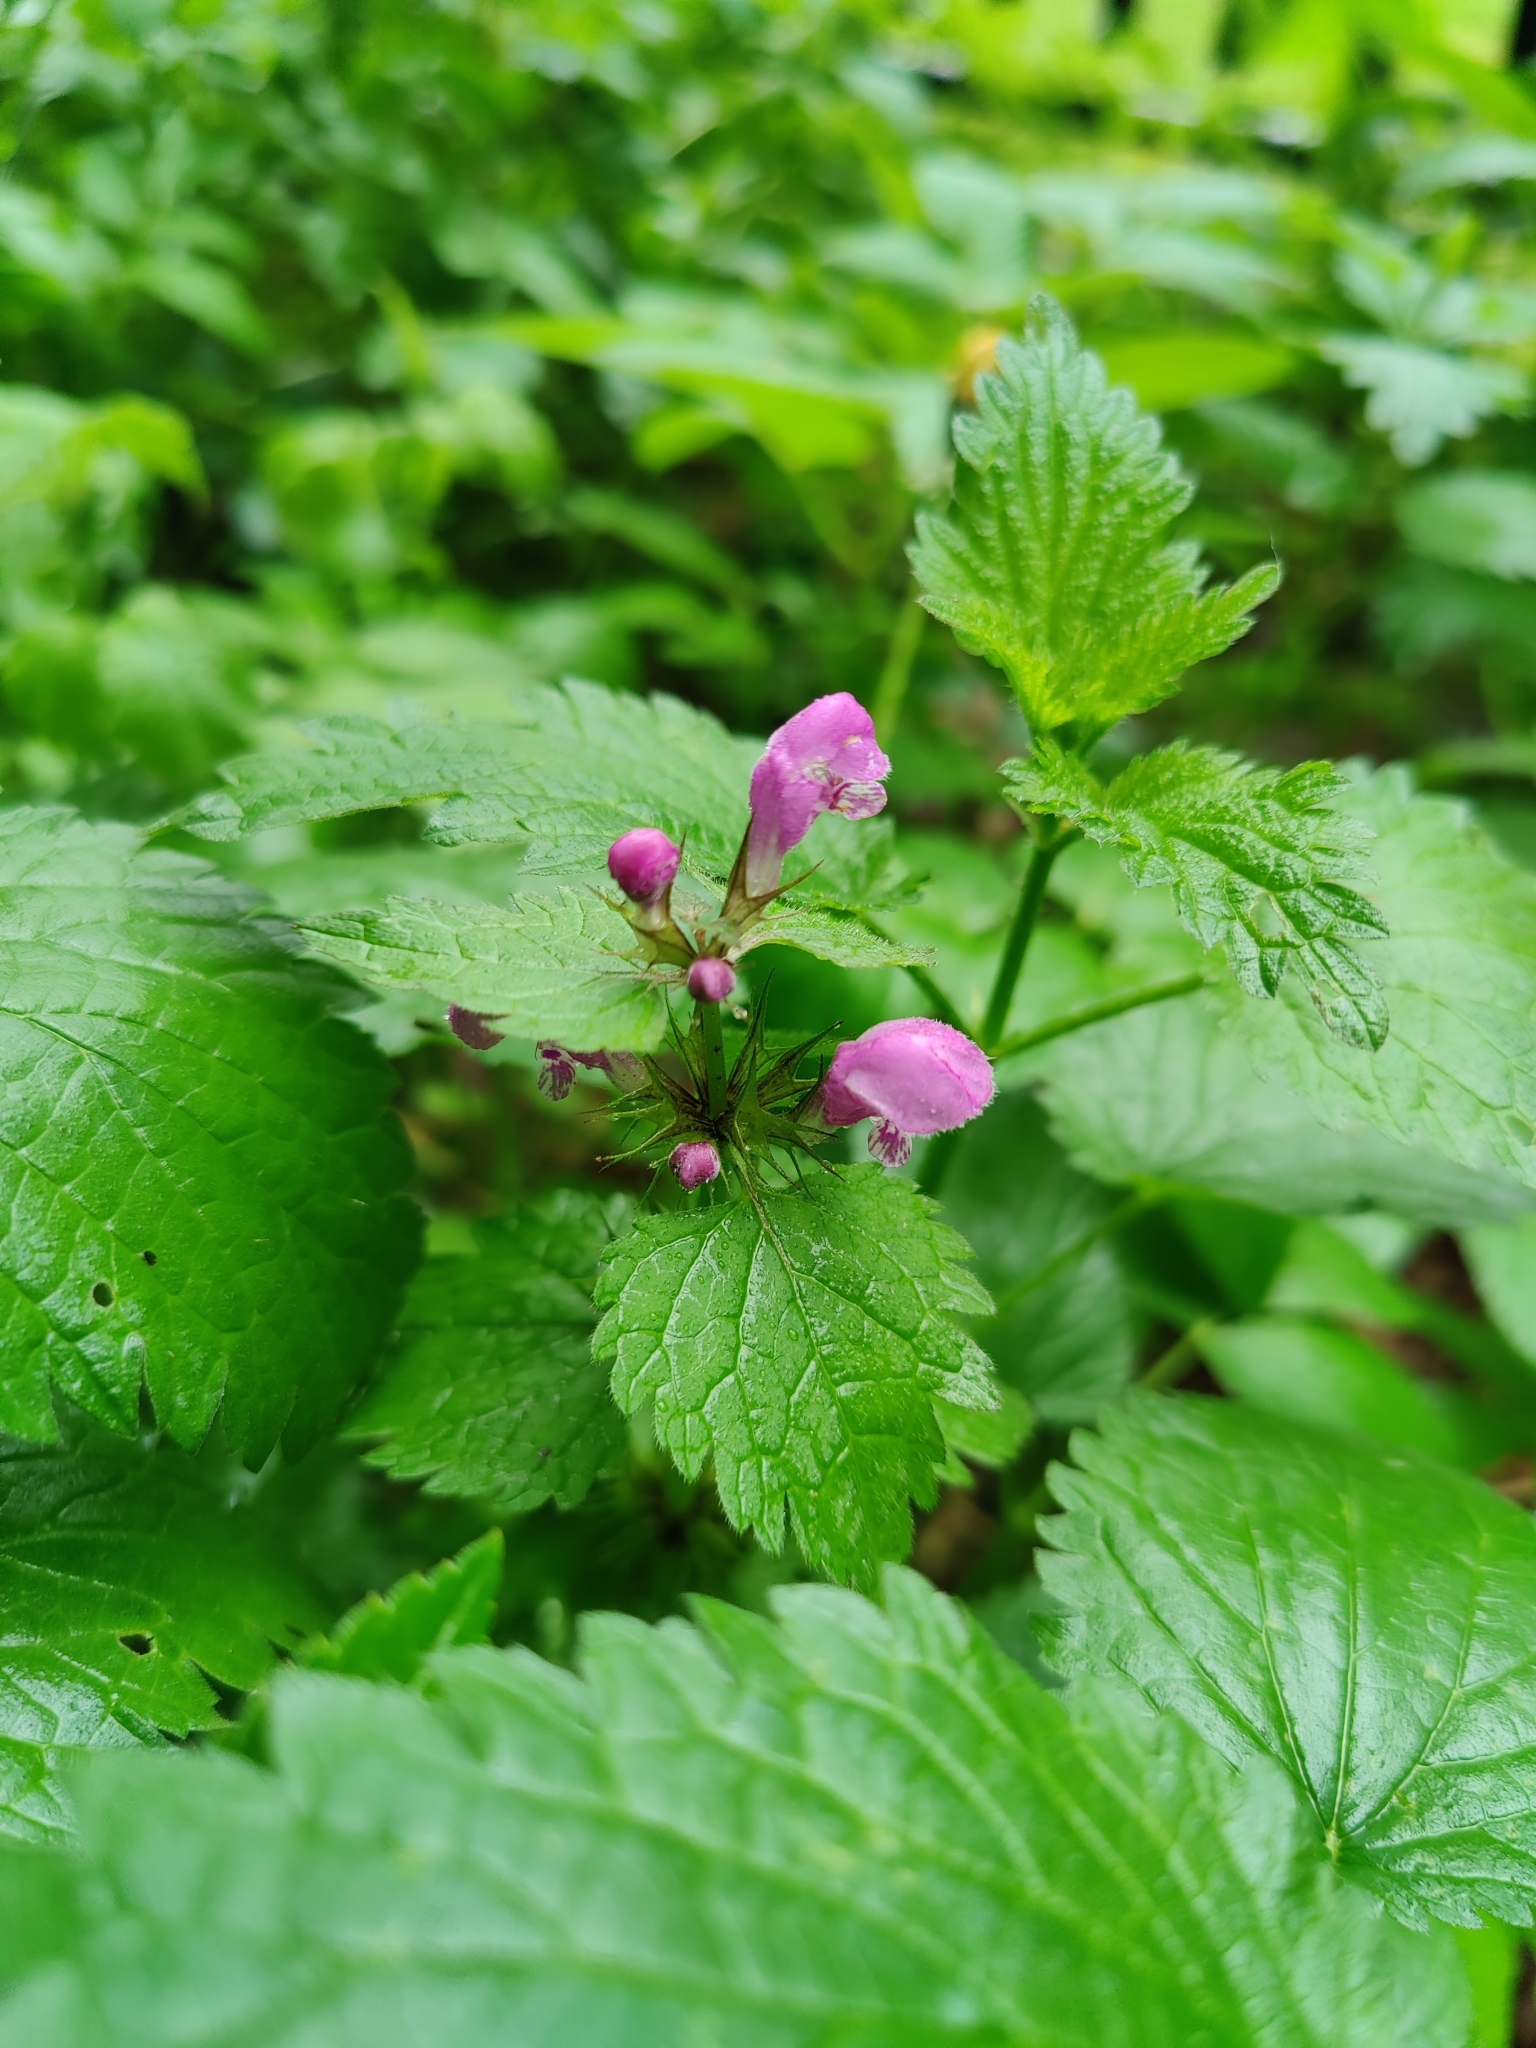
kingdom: Plantae
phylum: Tracheophyta
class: Magnoliopsida
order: Lamiales
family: Lamiaceae
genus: Lamium
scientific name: Lamium maculatum
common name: Spotted dead-nettle
